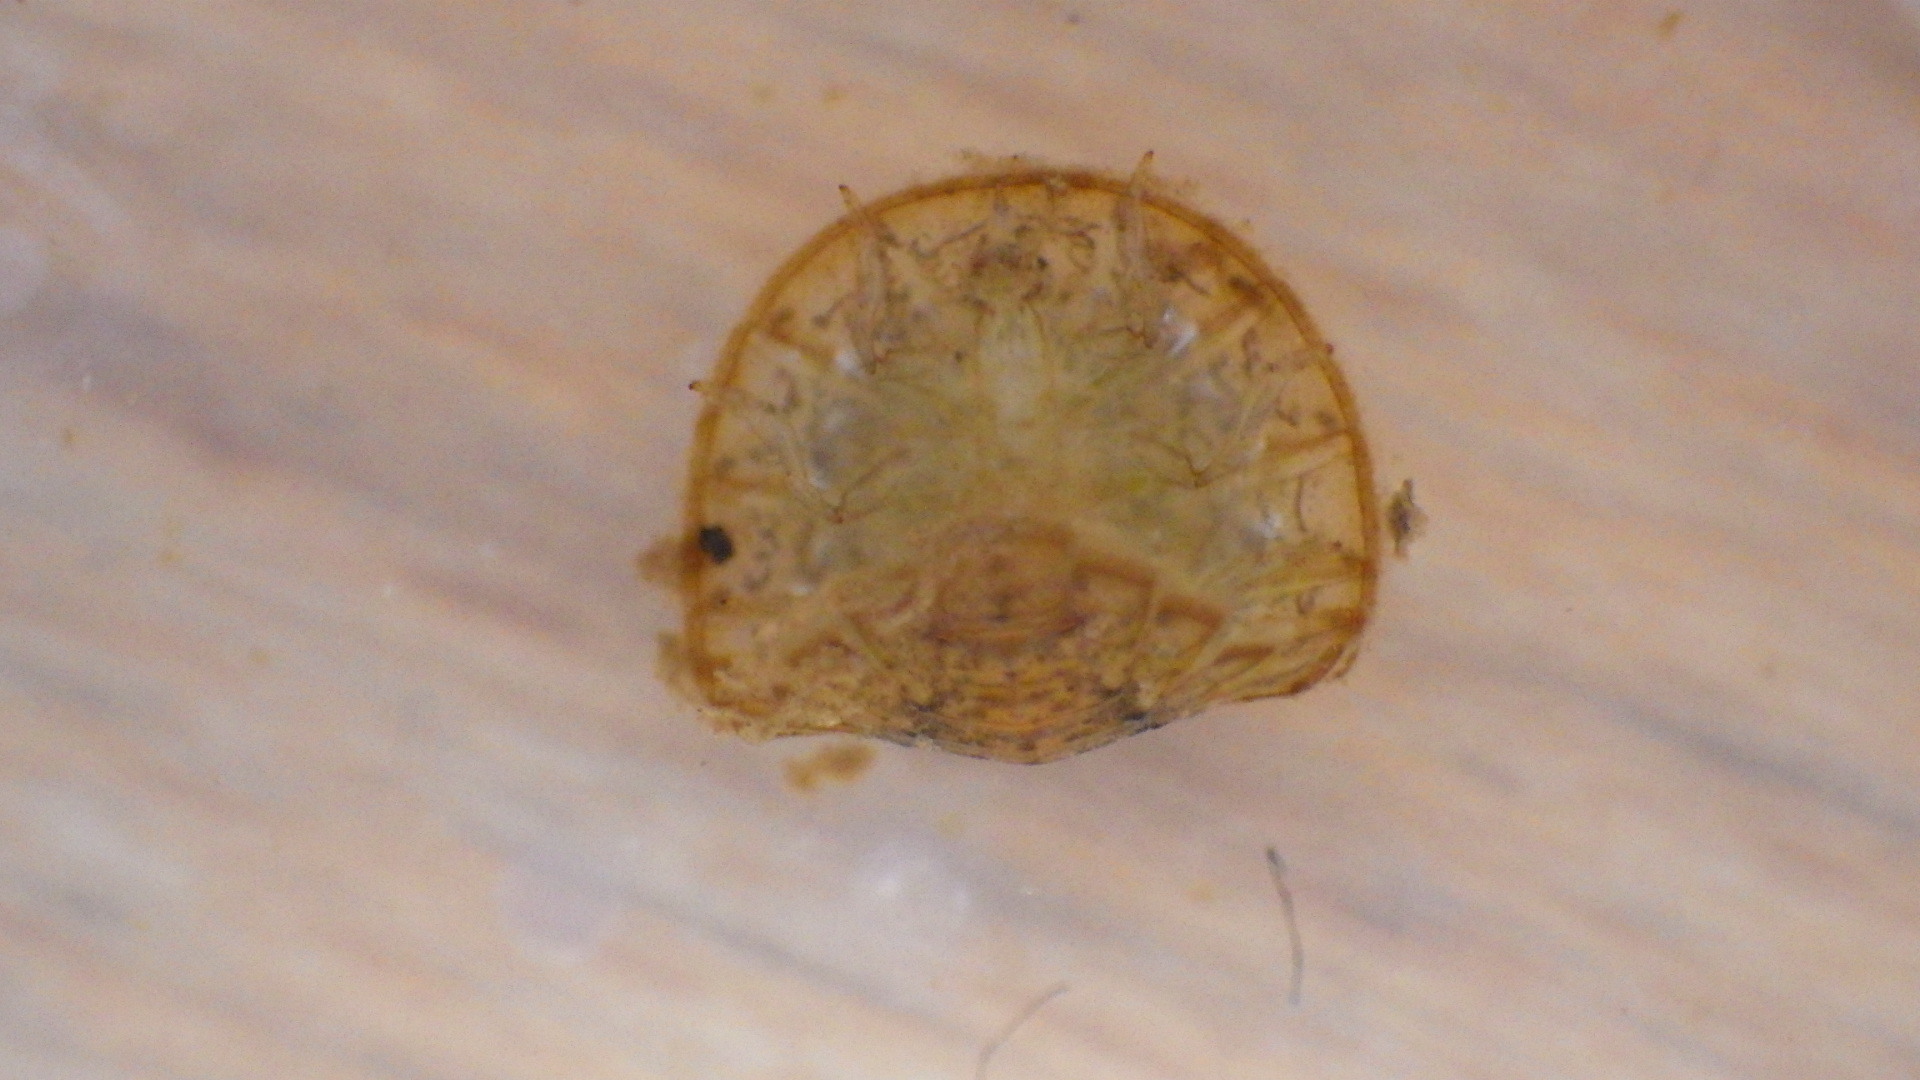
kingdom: Animalia
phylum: Arthropoda
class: Insecta
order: Coleoptera
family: Psephenidae
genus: Psephenus
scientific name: Psephenus herricki
